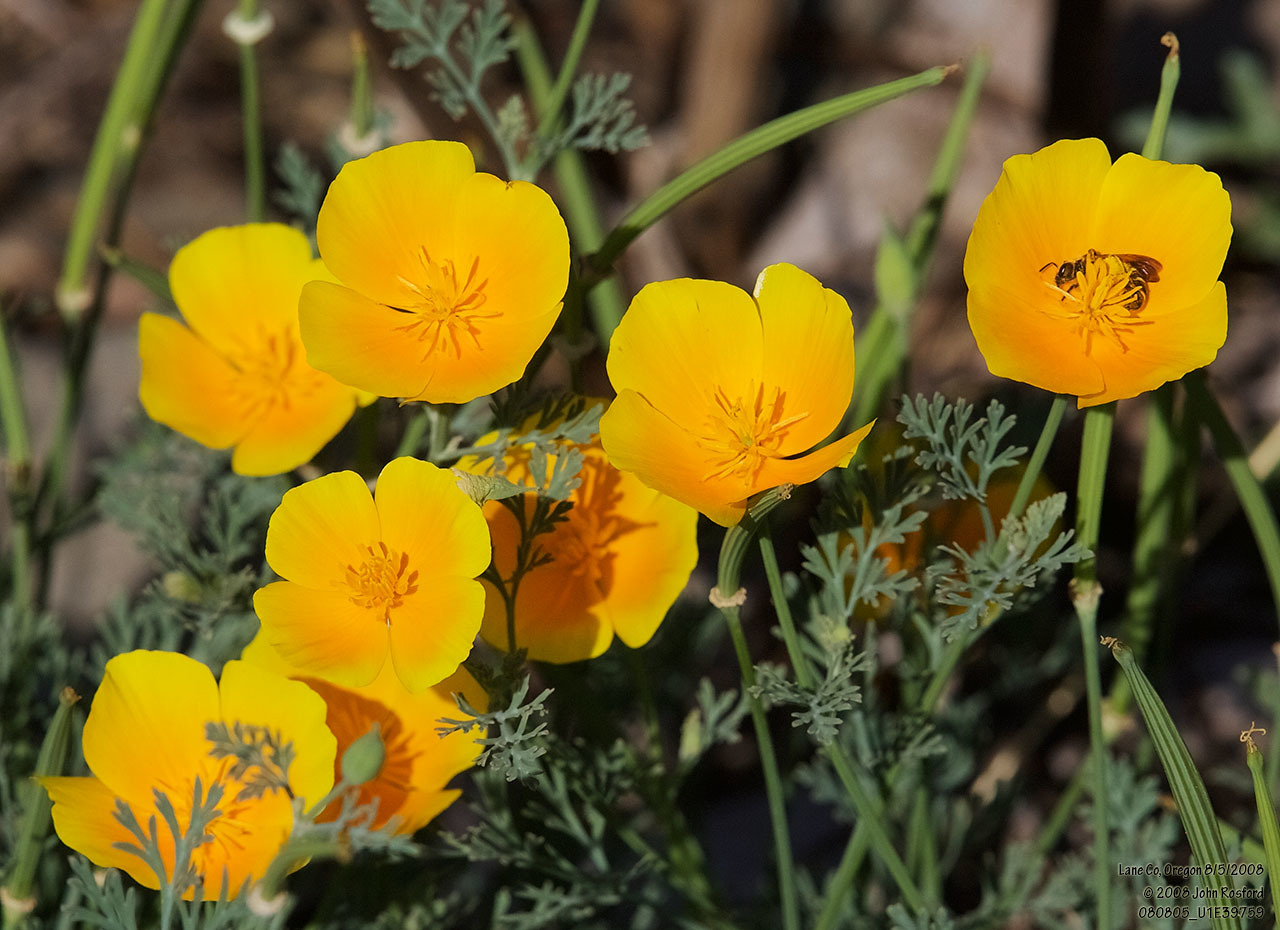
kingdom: Plantae
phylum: Tracheophyta
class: Magnoliopsida
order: Ranunculales
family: Papaveraceae
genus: Eschscholzia
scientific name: Eschscholzia californica
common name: California poppy
